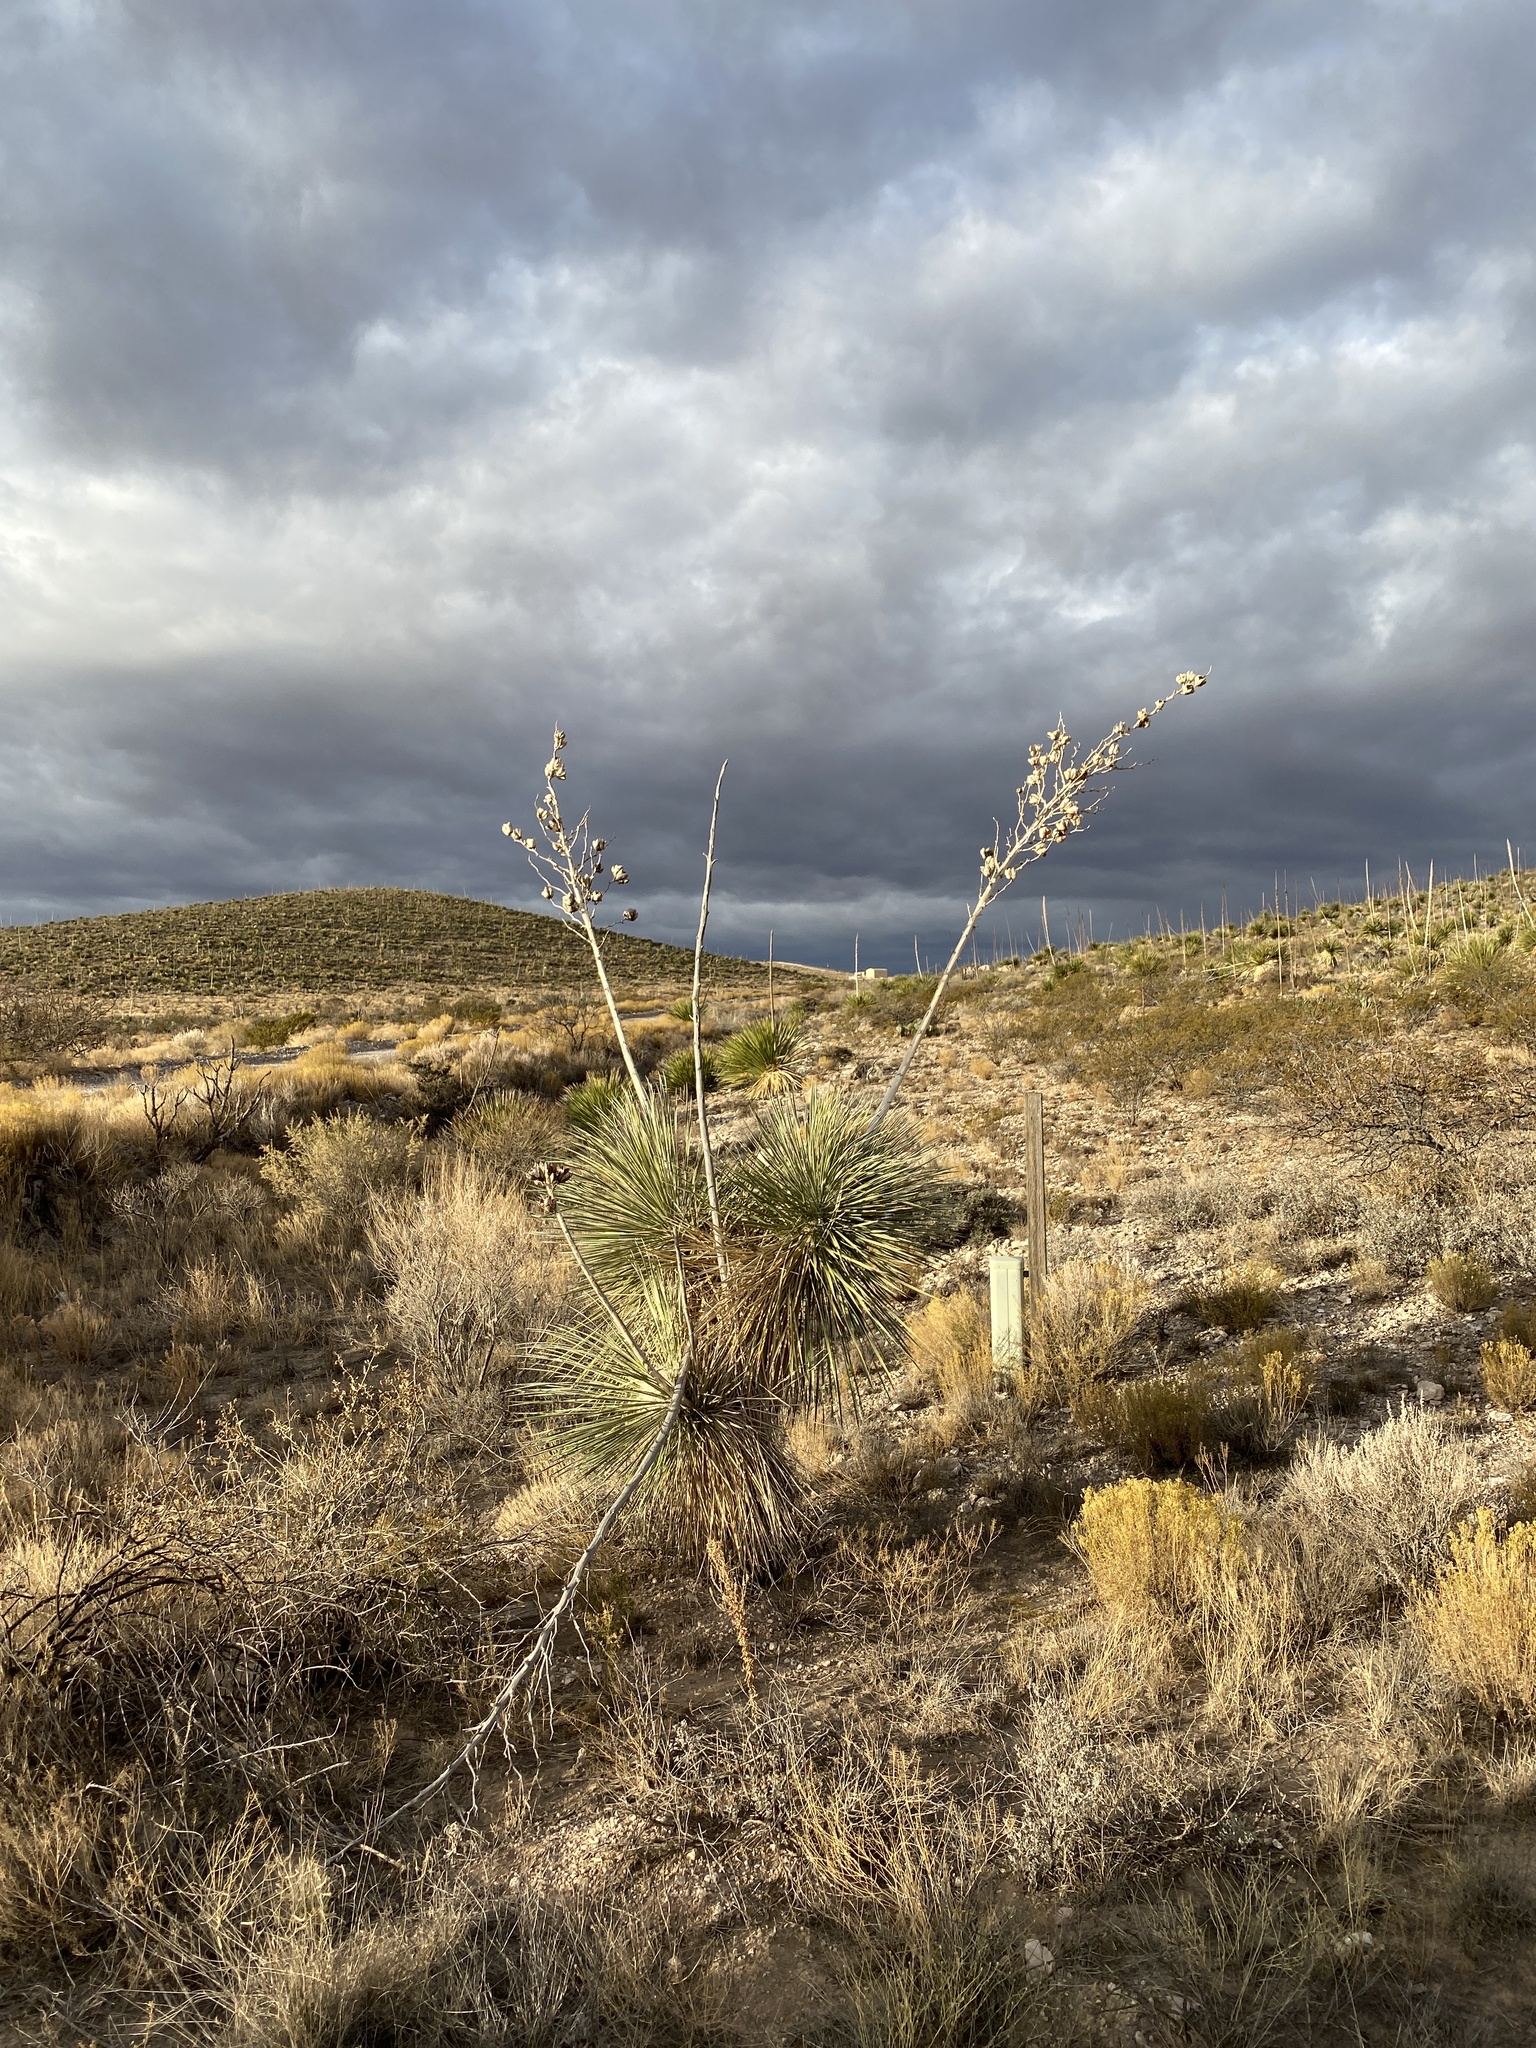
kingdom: Plantae
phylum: Tracheophyta
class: Liliopsida
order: Asparagales
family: Asparagaceae
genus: Yucca
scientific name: Yucca elata
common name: Palmella
